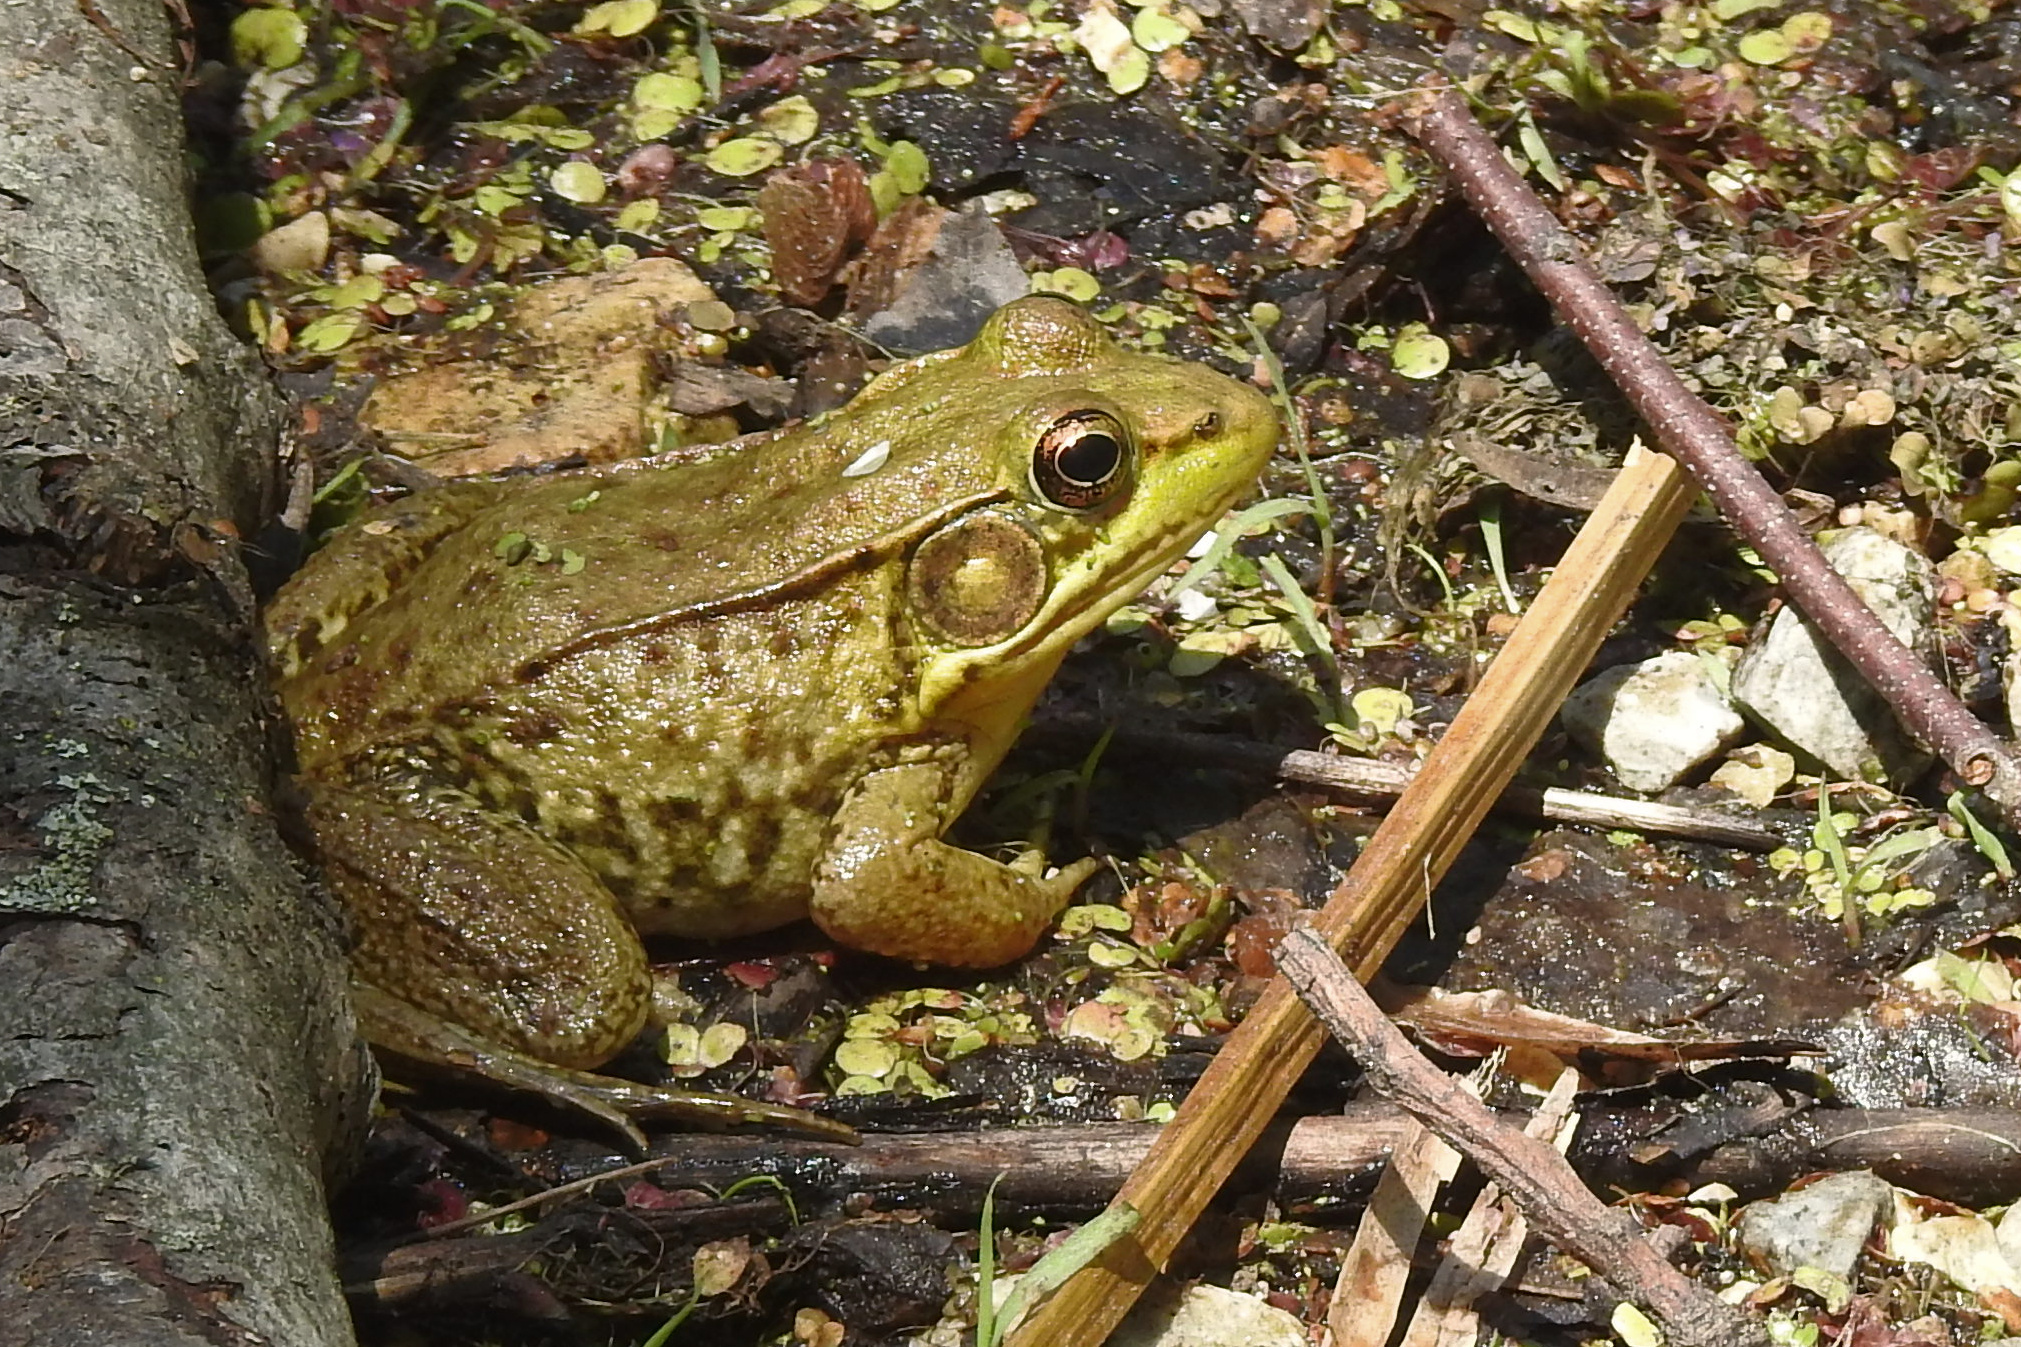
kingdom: Animalia
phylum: Chordata
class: Amphibia
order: Anura
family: Ranidae
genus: Lithobates
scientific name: Lithobates clamitans
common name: Green frog
